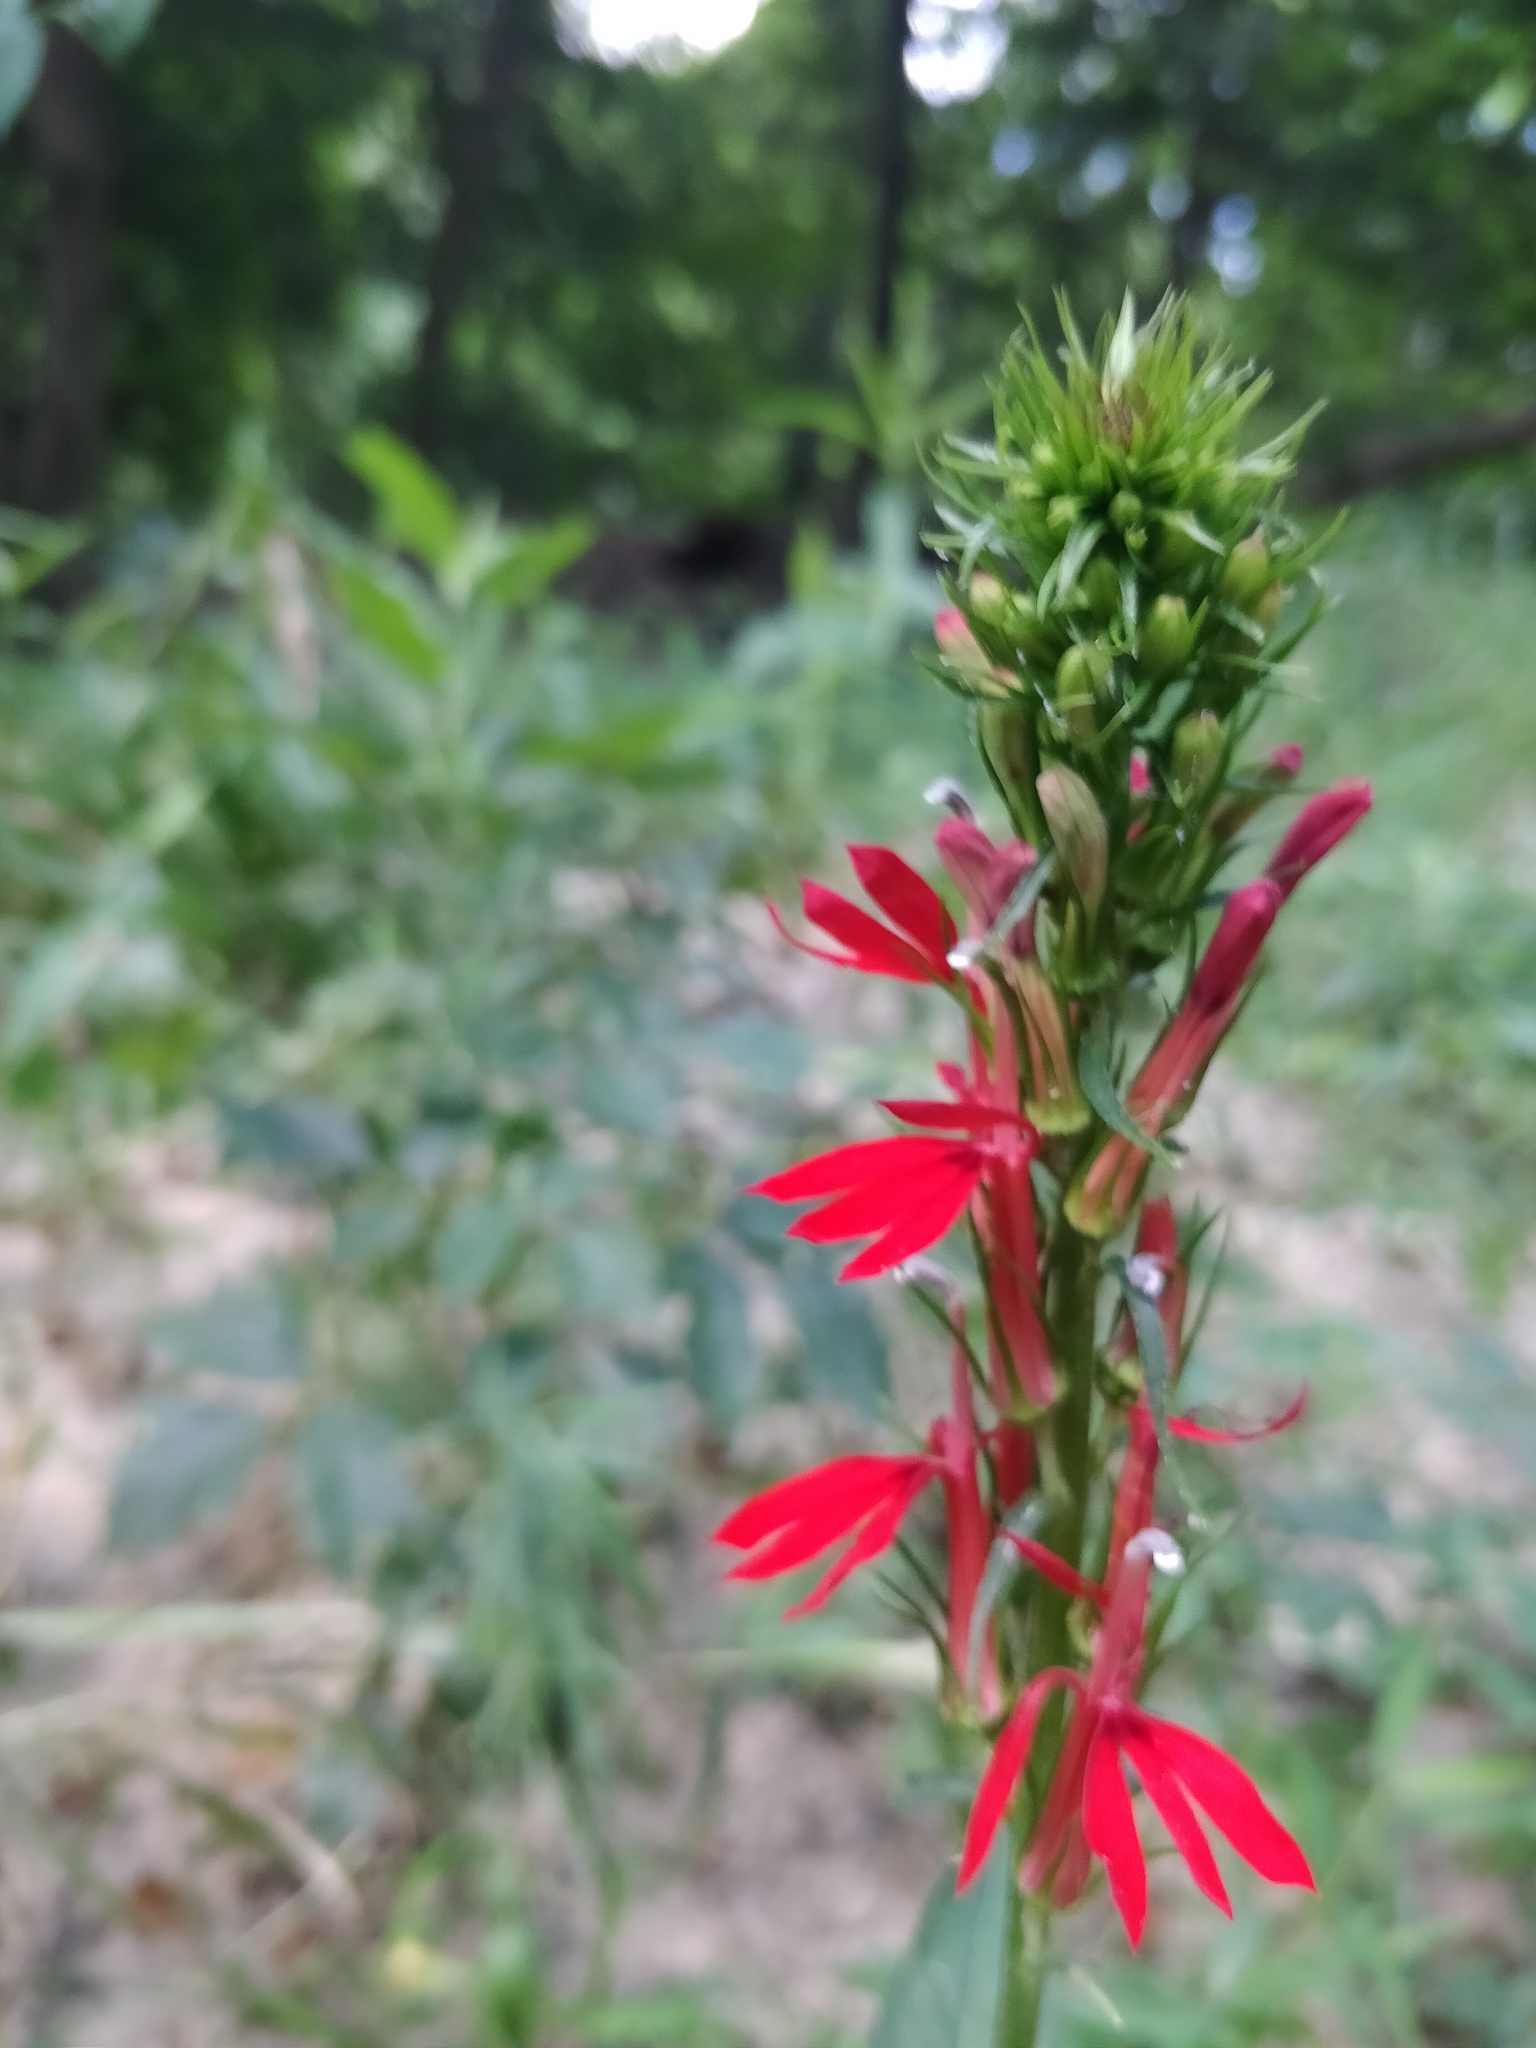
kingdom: Plantae
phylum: Tracheophyta
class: Magnoliopsida
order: Asterales
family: Campanulaceae
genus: Lobelia
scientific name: Lobelia cardinalis
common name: Cardinal flower
